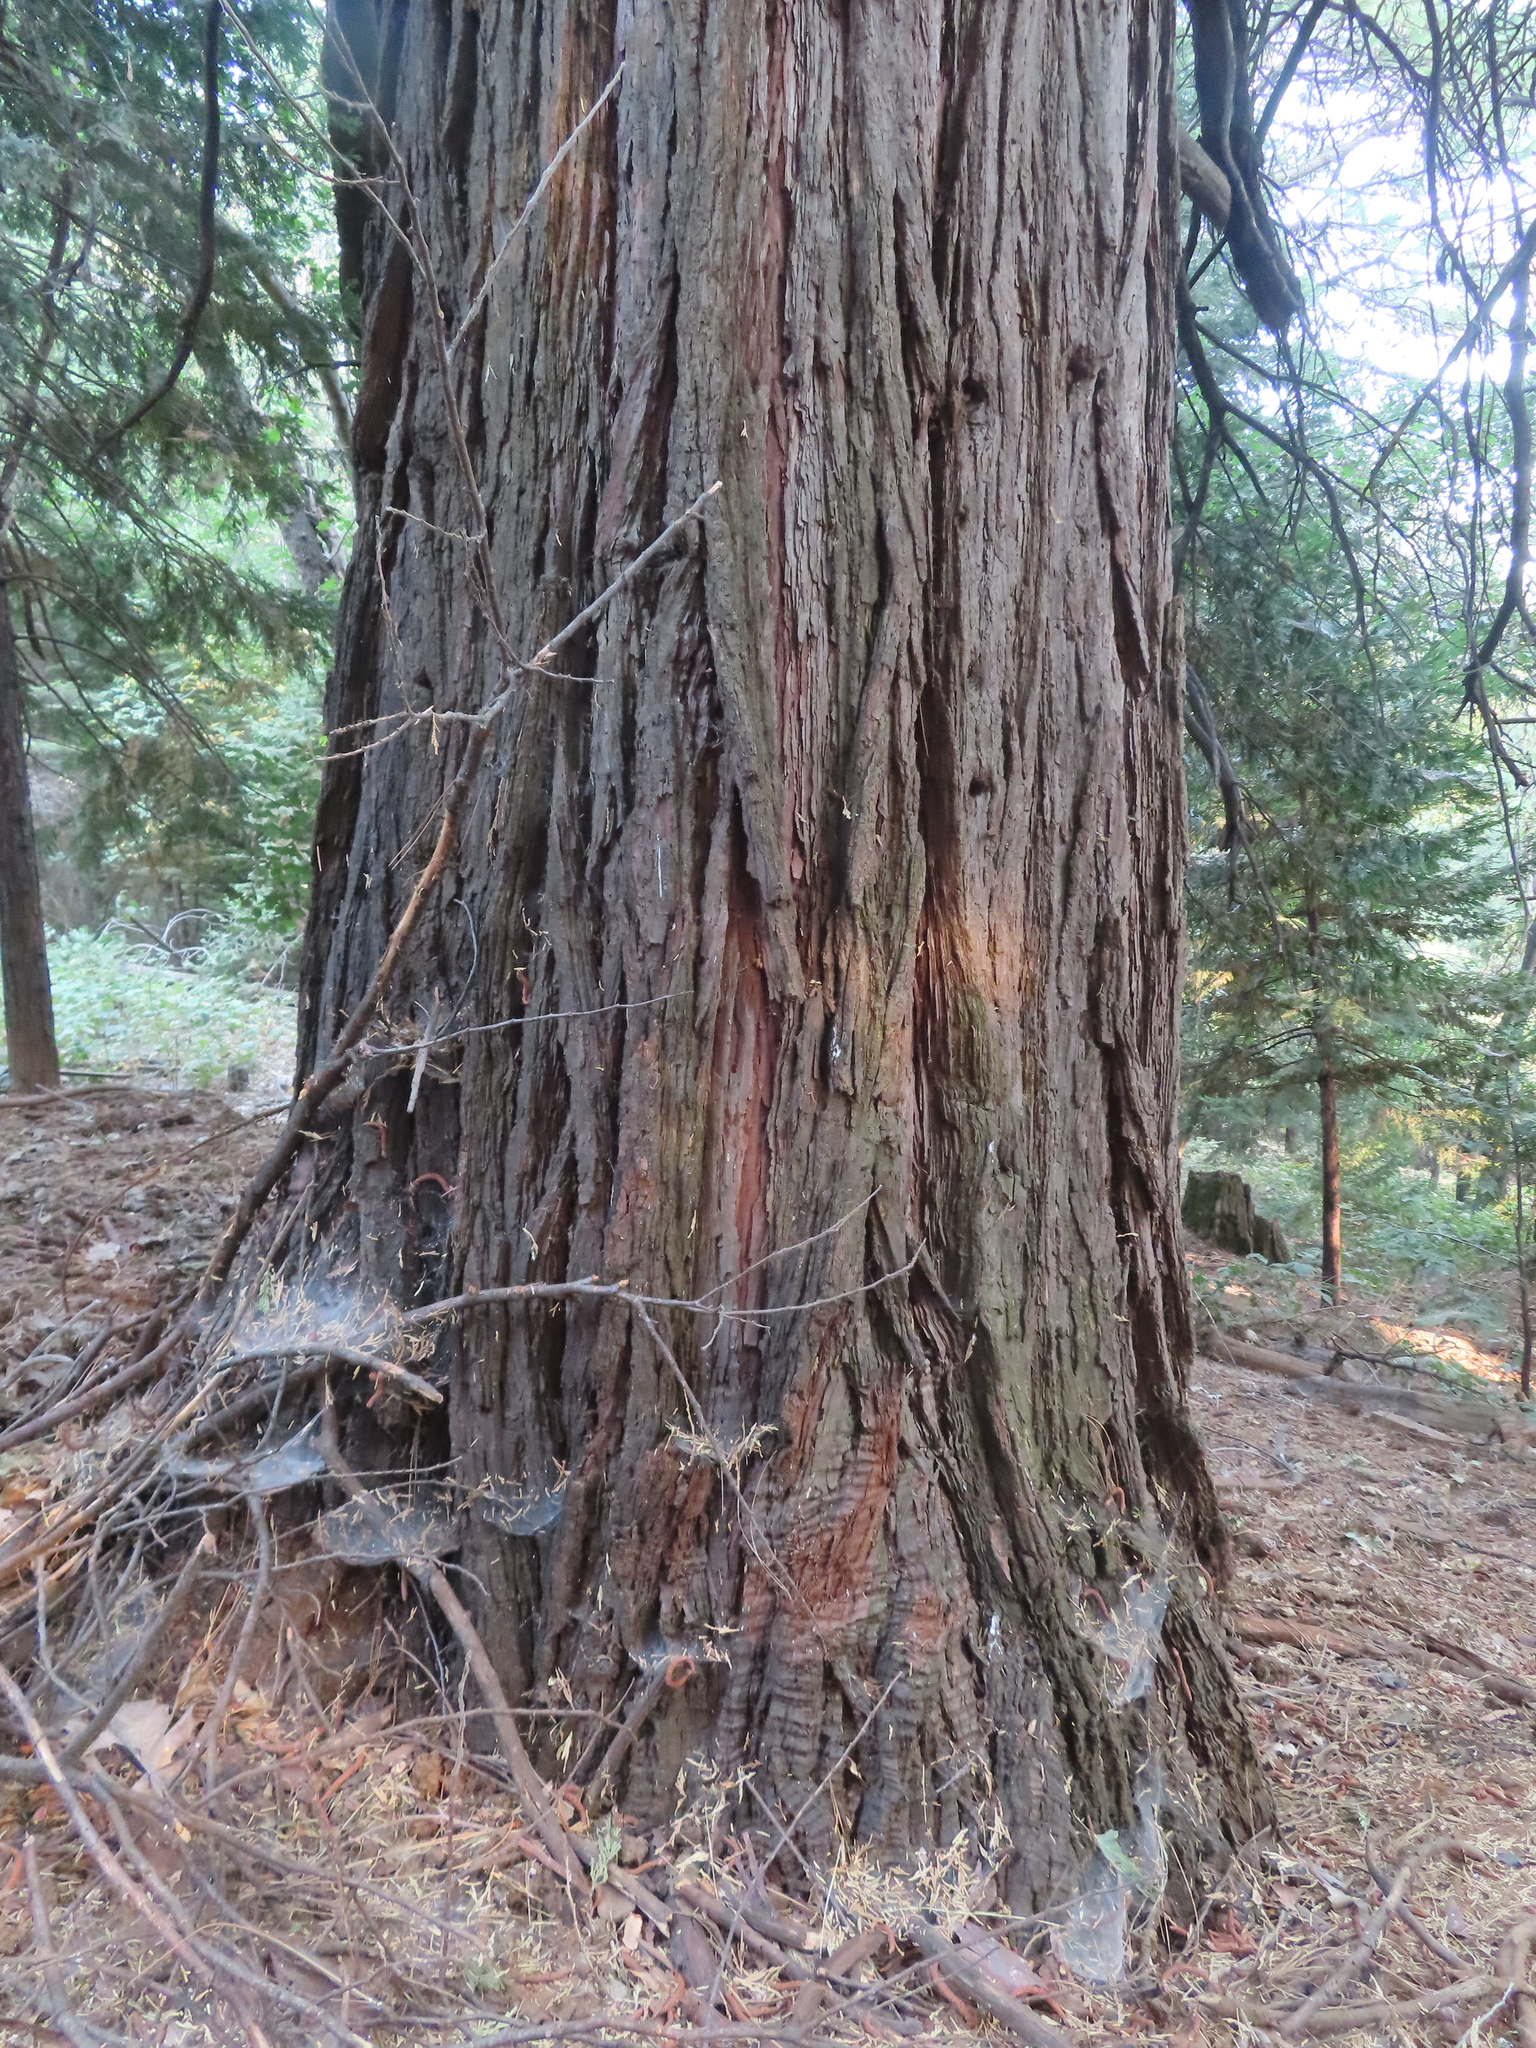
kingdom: Plantae
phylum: Tracheophyta
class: Pinopsida
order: Pinales
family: Cupressaceae
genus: Calocedrus
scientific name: Calocedrus decurrens
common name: Californian incense-cedar
